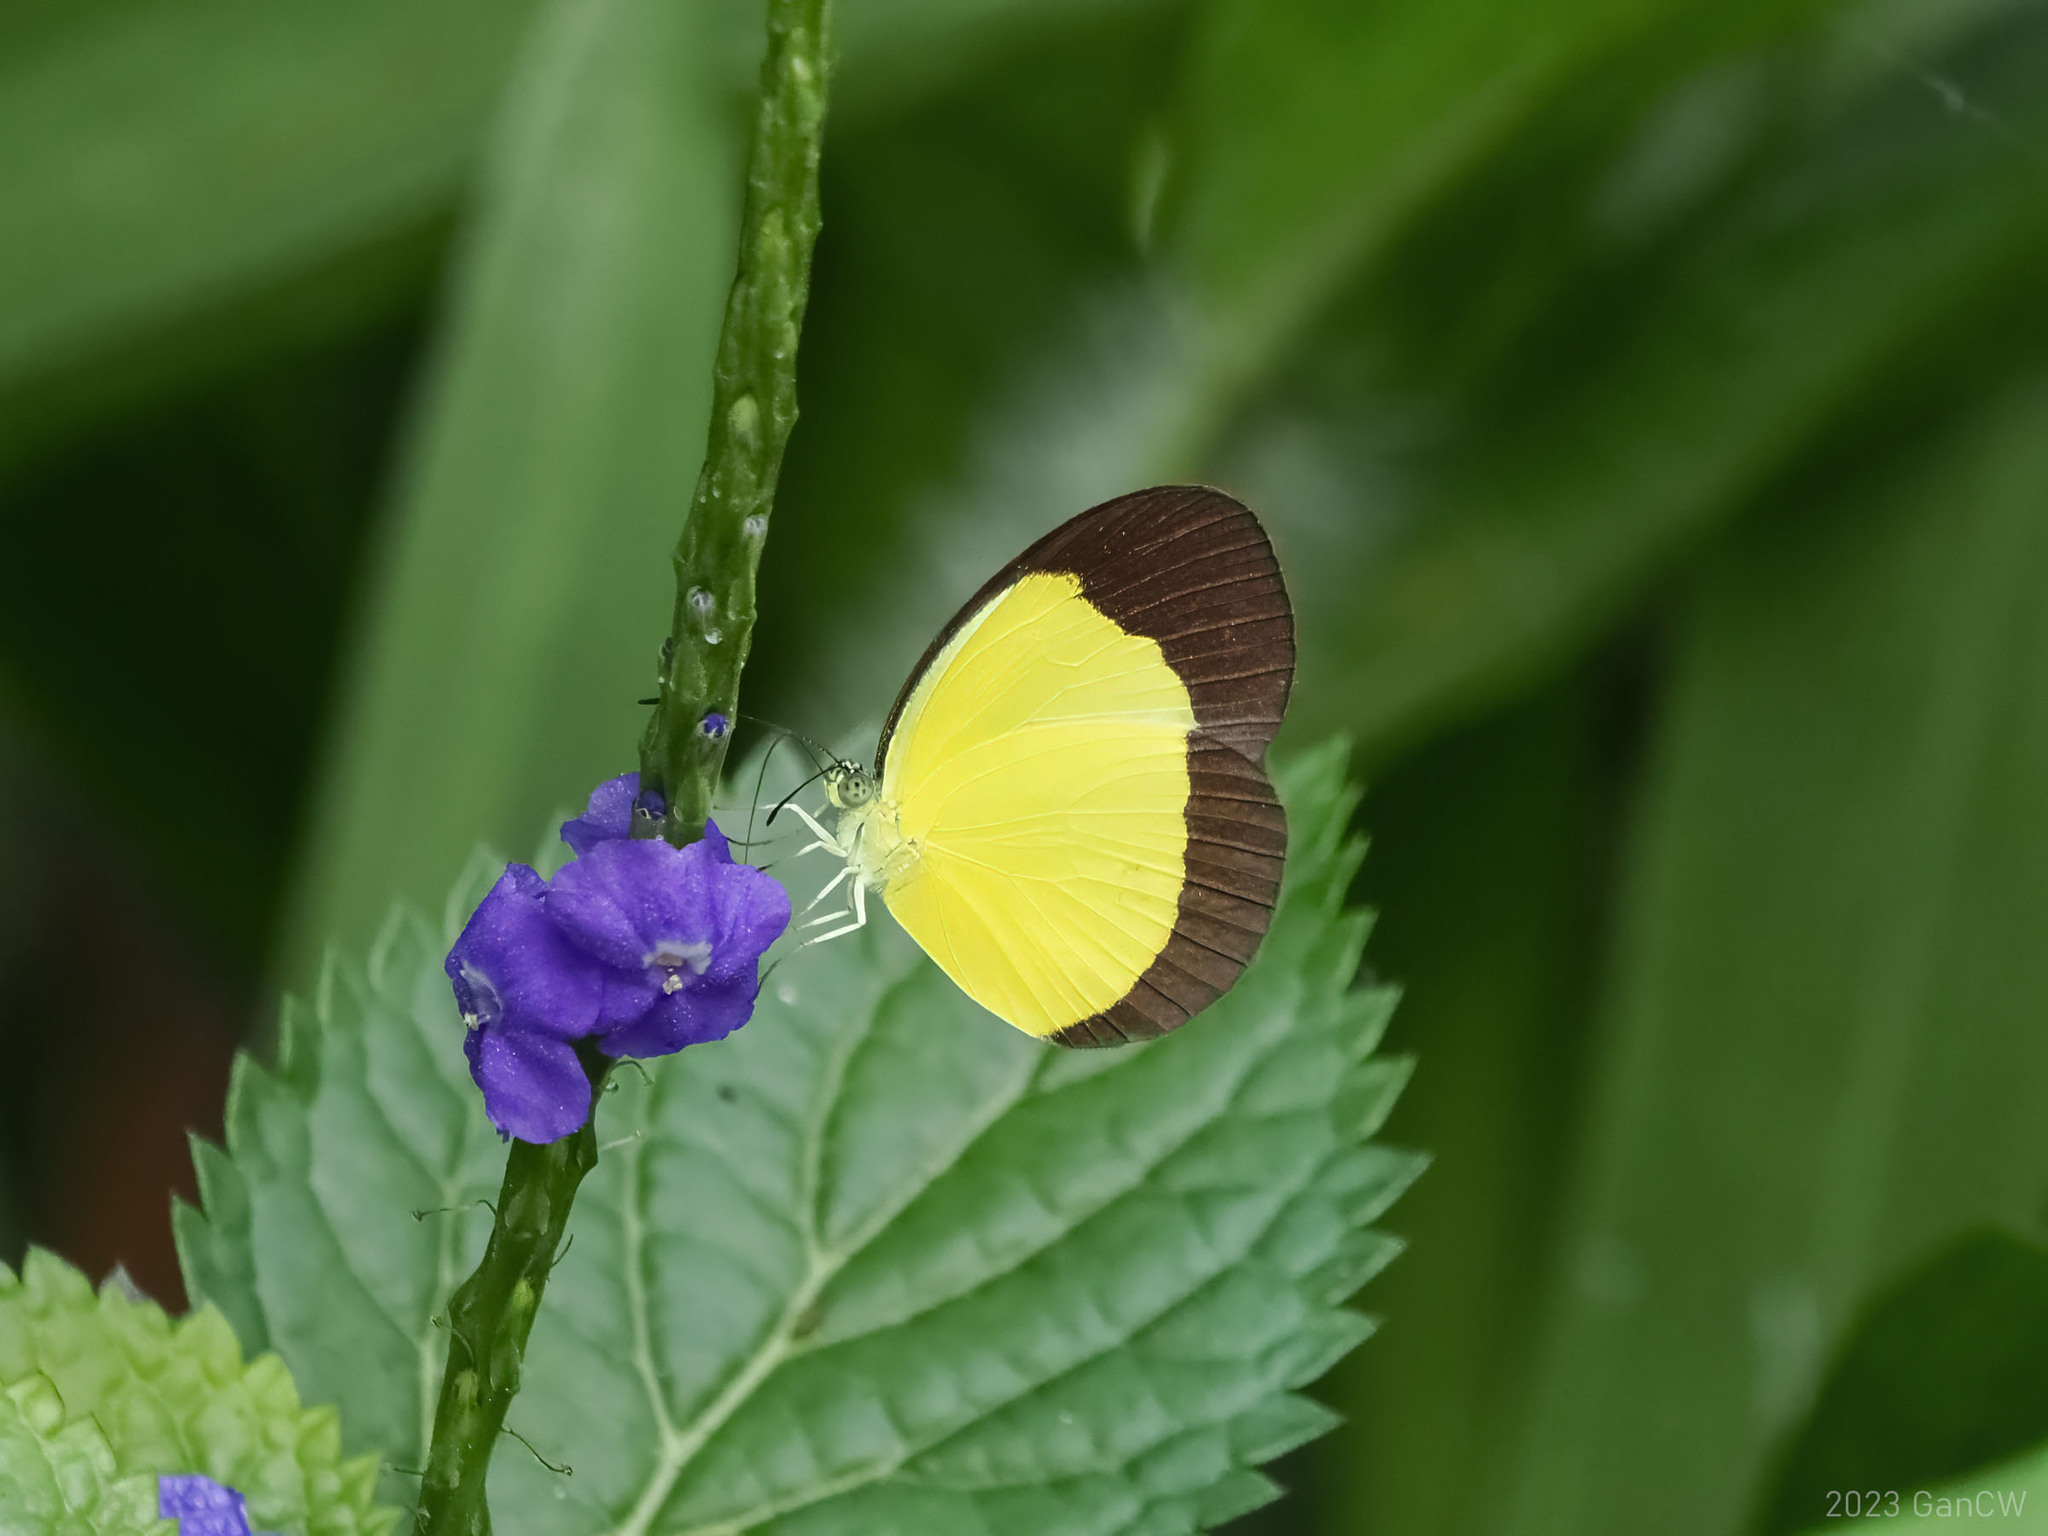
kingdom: Animalia
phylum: Arthropoda
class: Insecta
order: Lepidoptera
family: Pieridae
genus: Eurema
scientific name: Eurema puella
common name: Broad margined grass yellow
